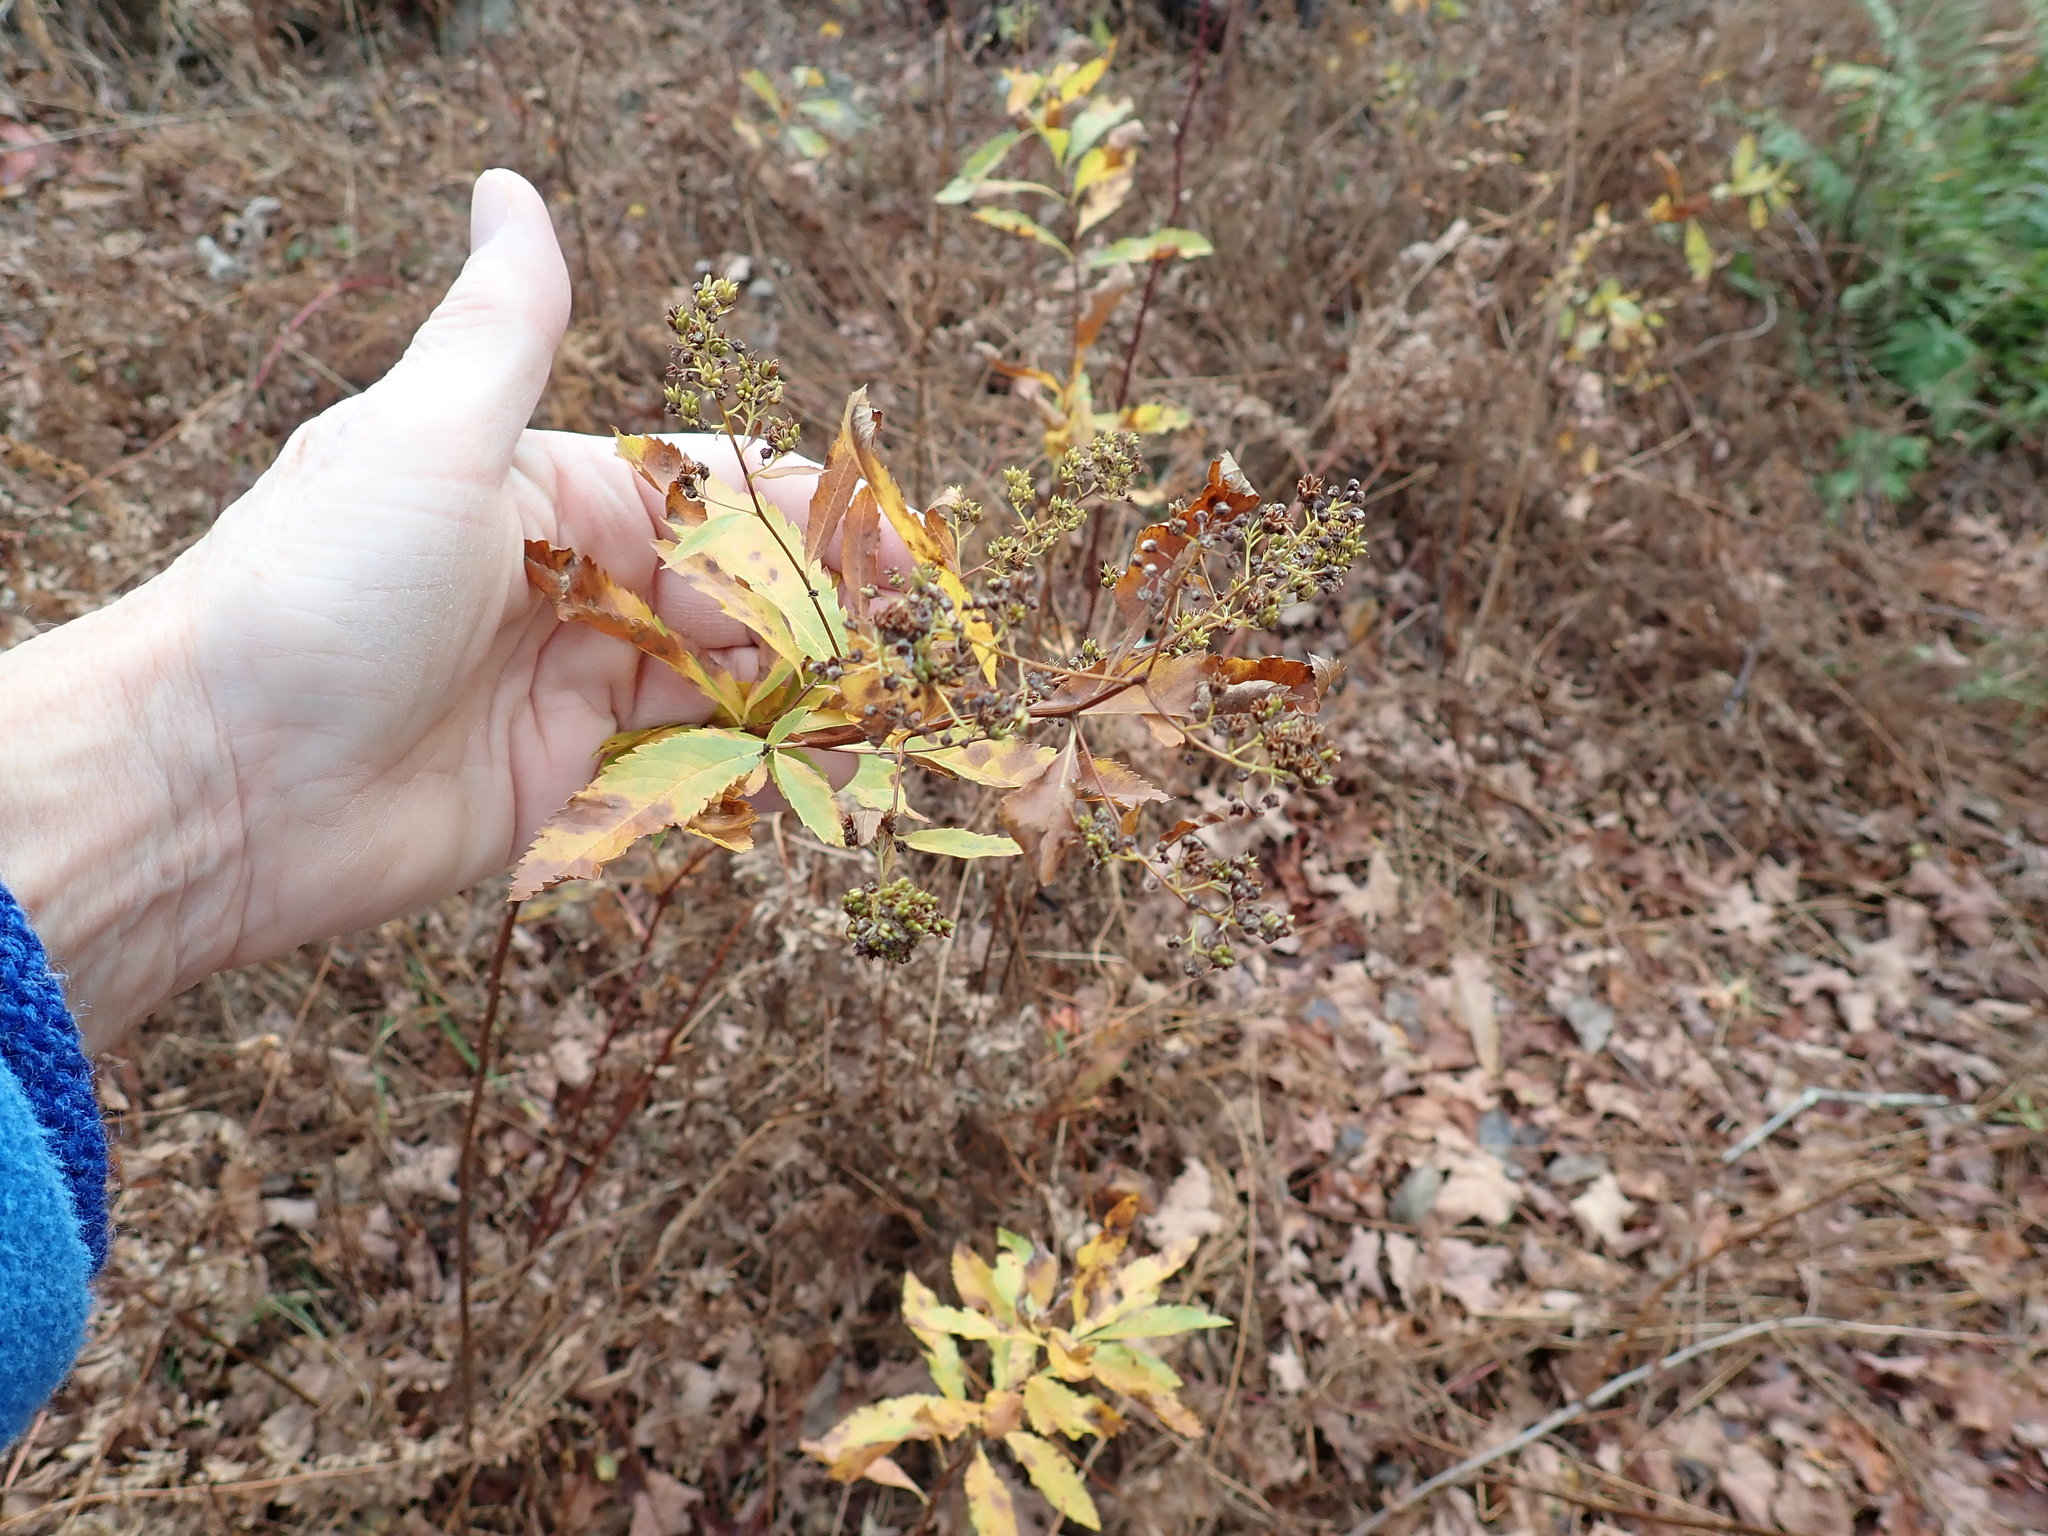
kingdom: Plantae
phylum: Tracheophyta
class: Magnoliopsida
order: Rosales
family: Rosaceae
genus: Spiraea
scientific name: Spiraea alba
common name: Pale bridewort
